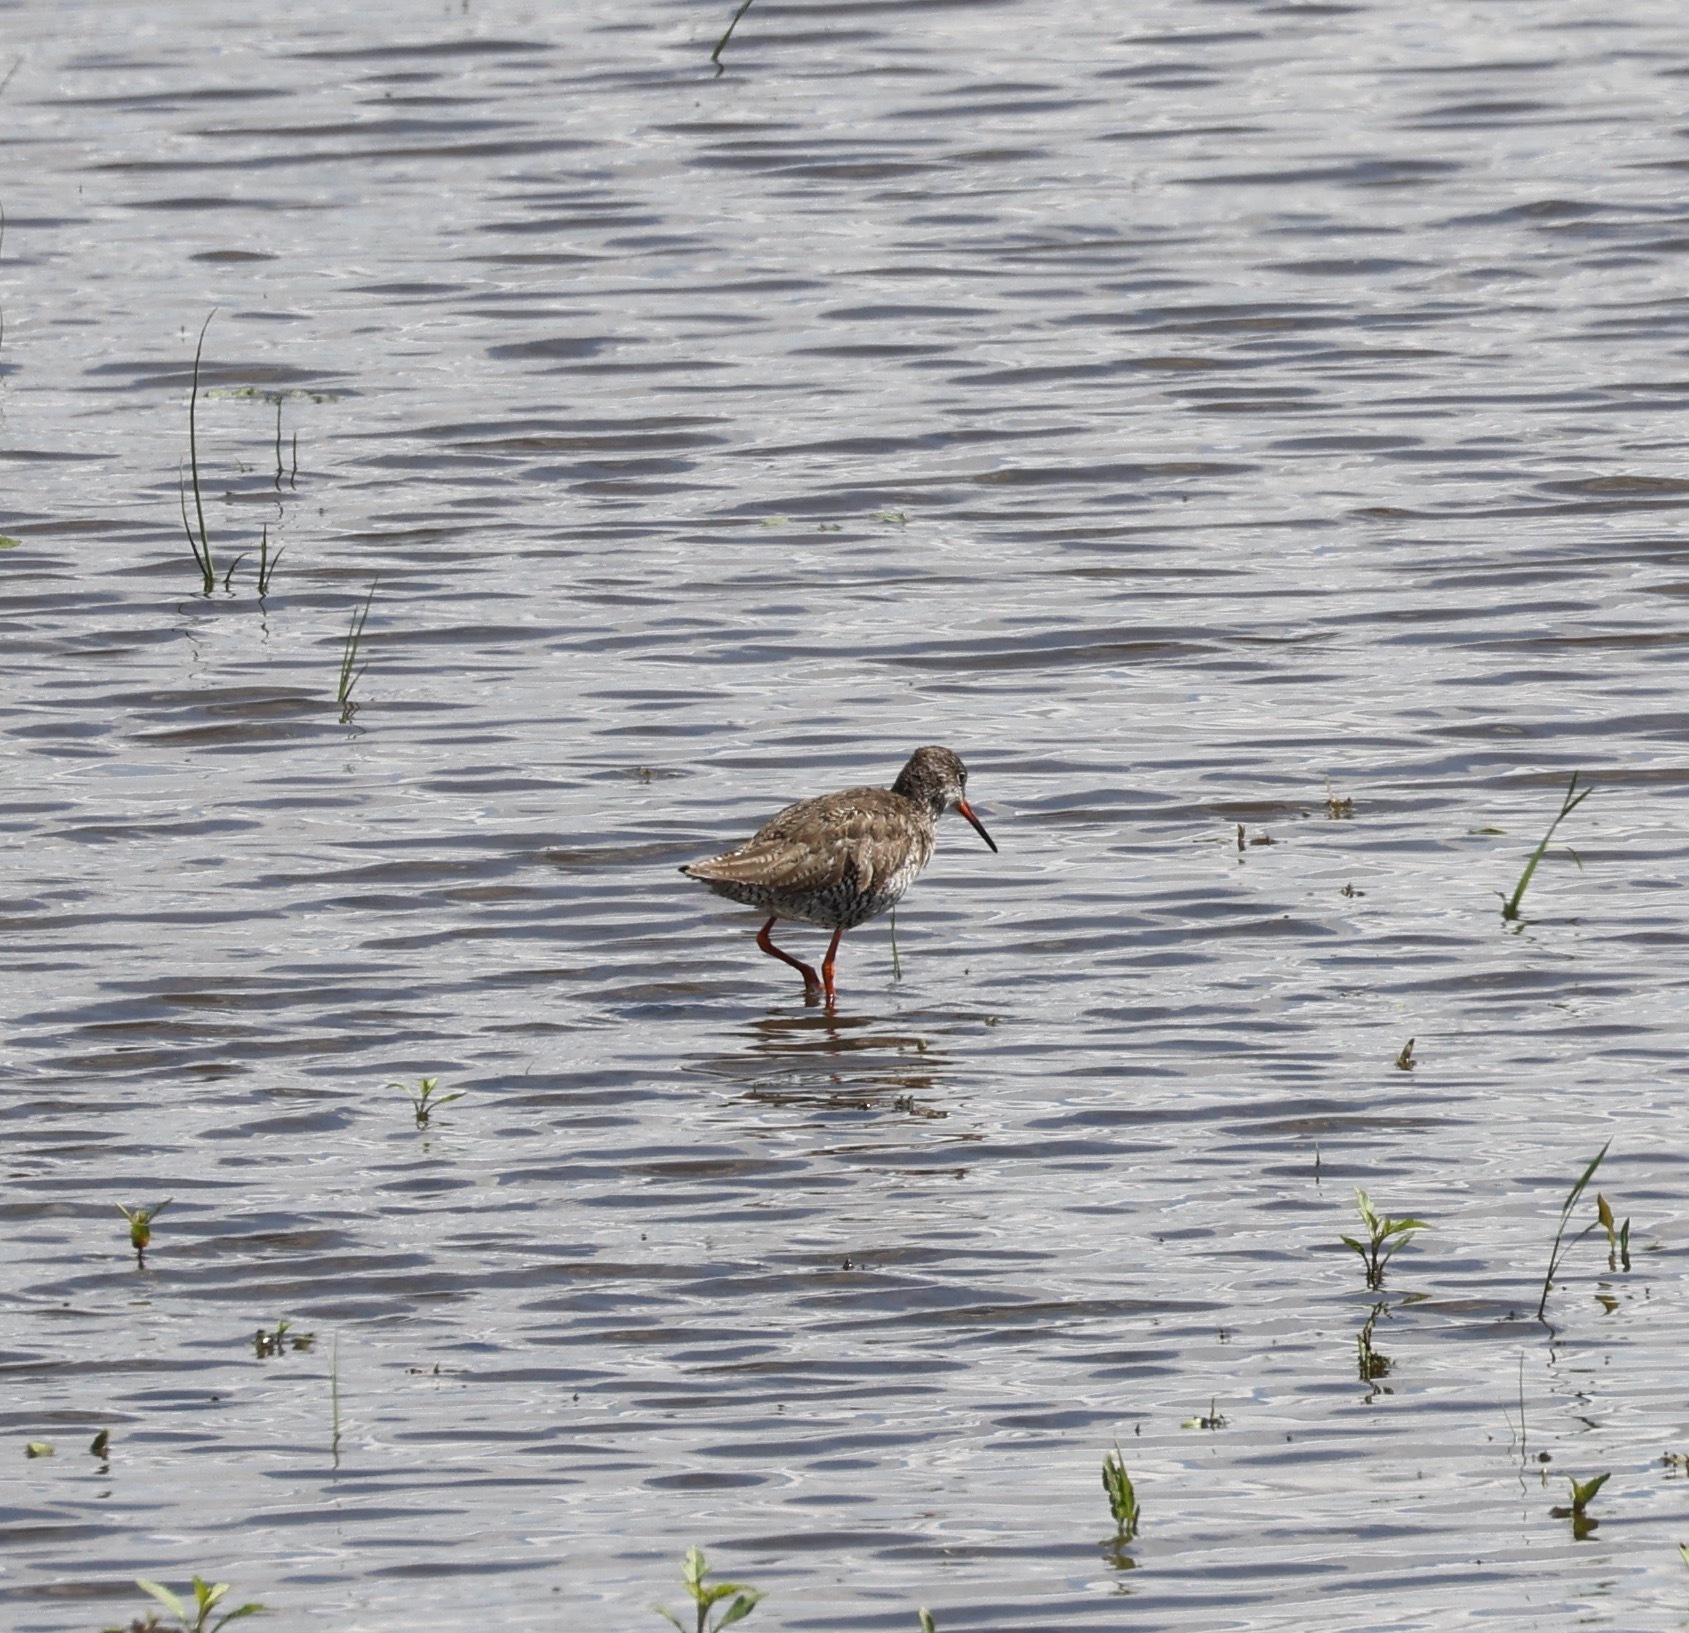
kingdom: Animalia
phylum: Chordata
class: Aves
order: Charadriiformes
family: Scolopacidae
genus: Tringa
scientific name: Tringa totanus
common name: Common redshank
